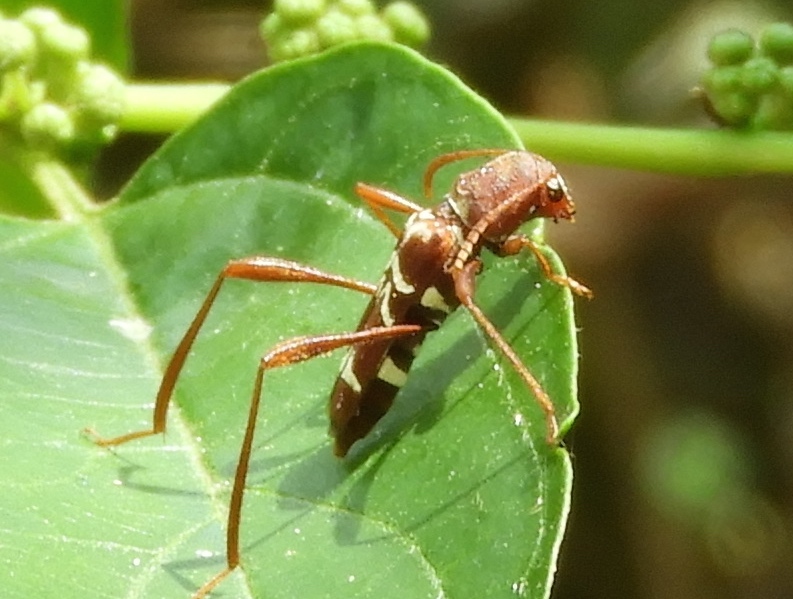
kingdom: Animalia
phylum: Arthropoda
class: Insecta
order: Coleoptera
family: Cerambycidae
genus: Neoclytus
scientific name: Neoclytus tenuiscriptus
